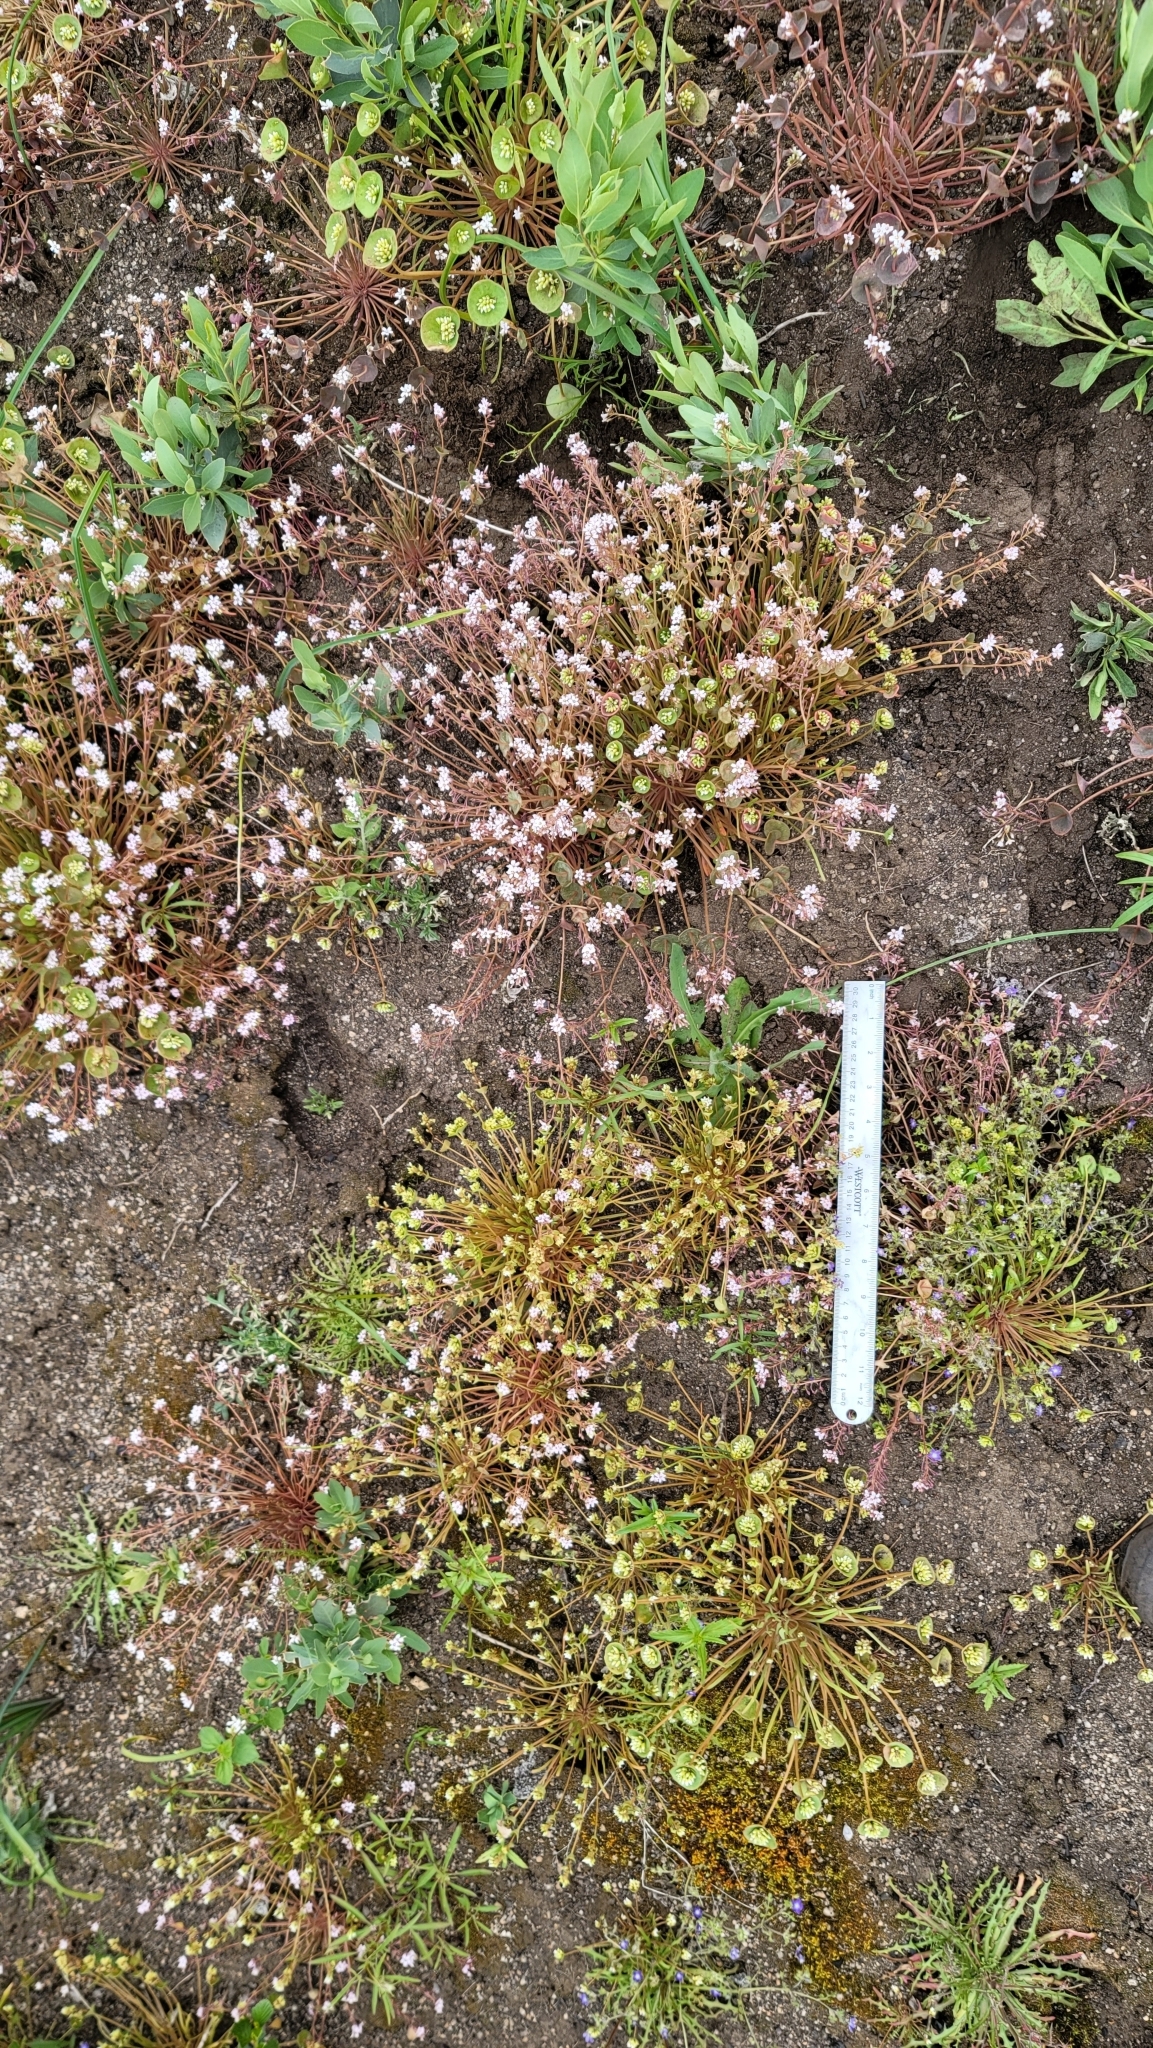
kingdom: Plantae
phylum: Tracheophyta
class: Magnoliopsida
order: Caryophyllales
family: Montiaceae
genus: Claytonia
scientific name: Claytonia parviflora
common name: Indian-lettuce
